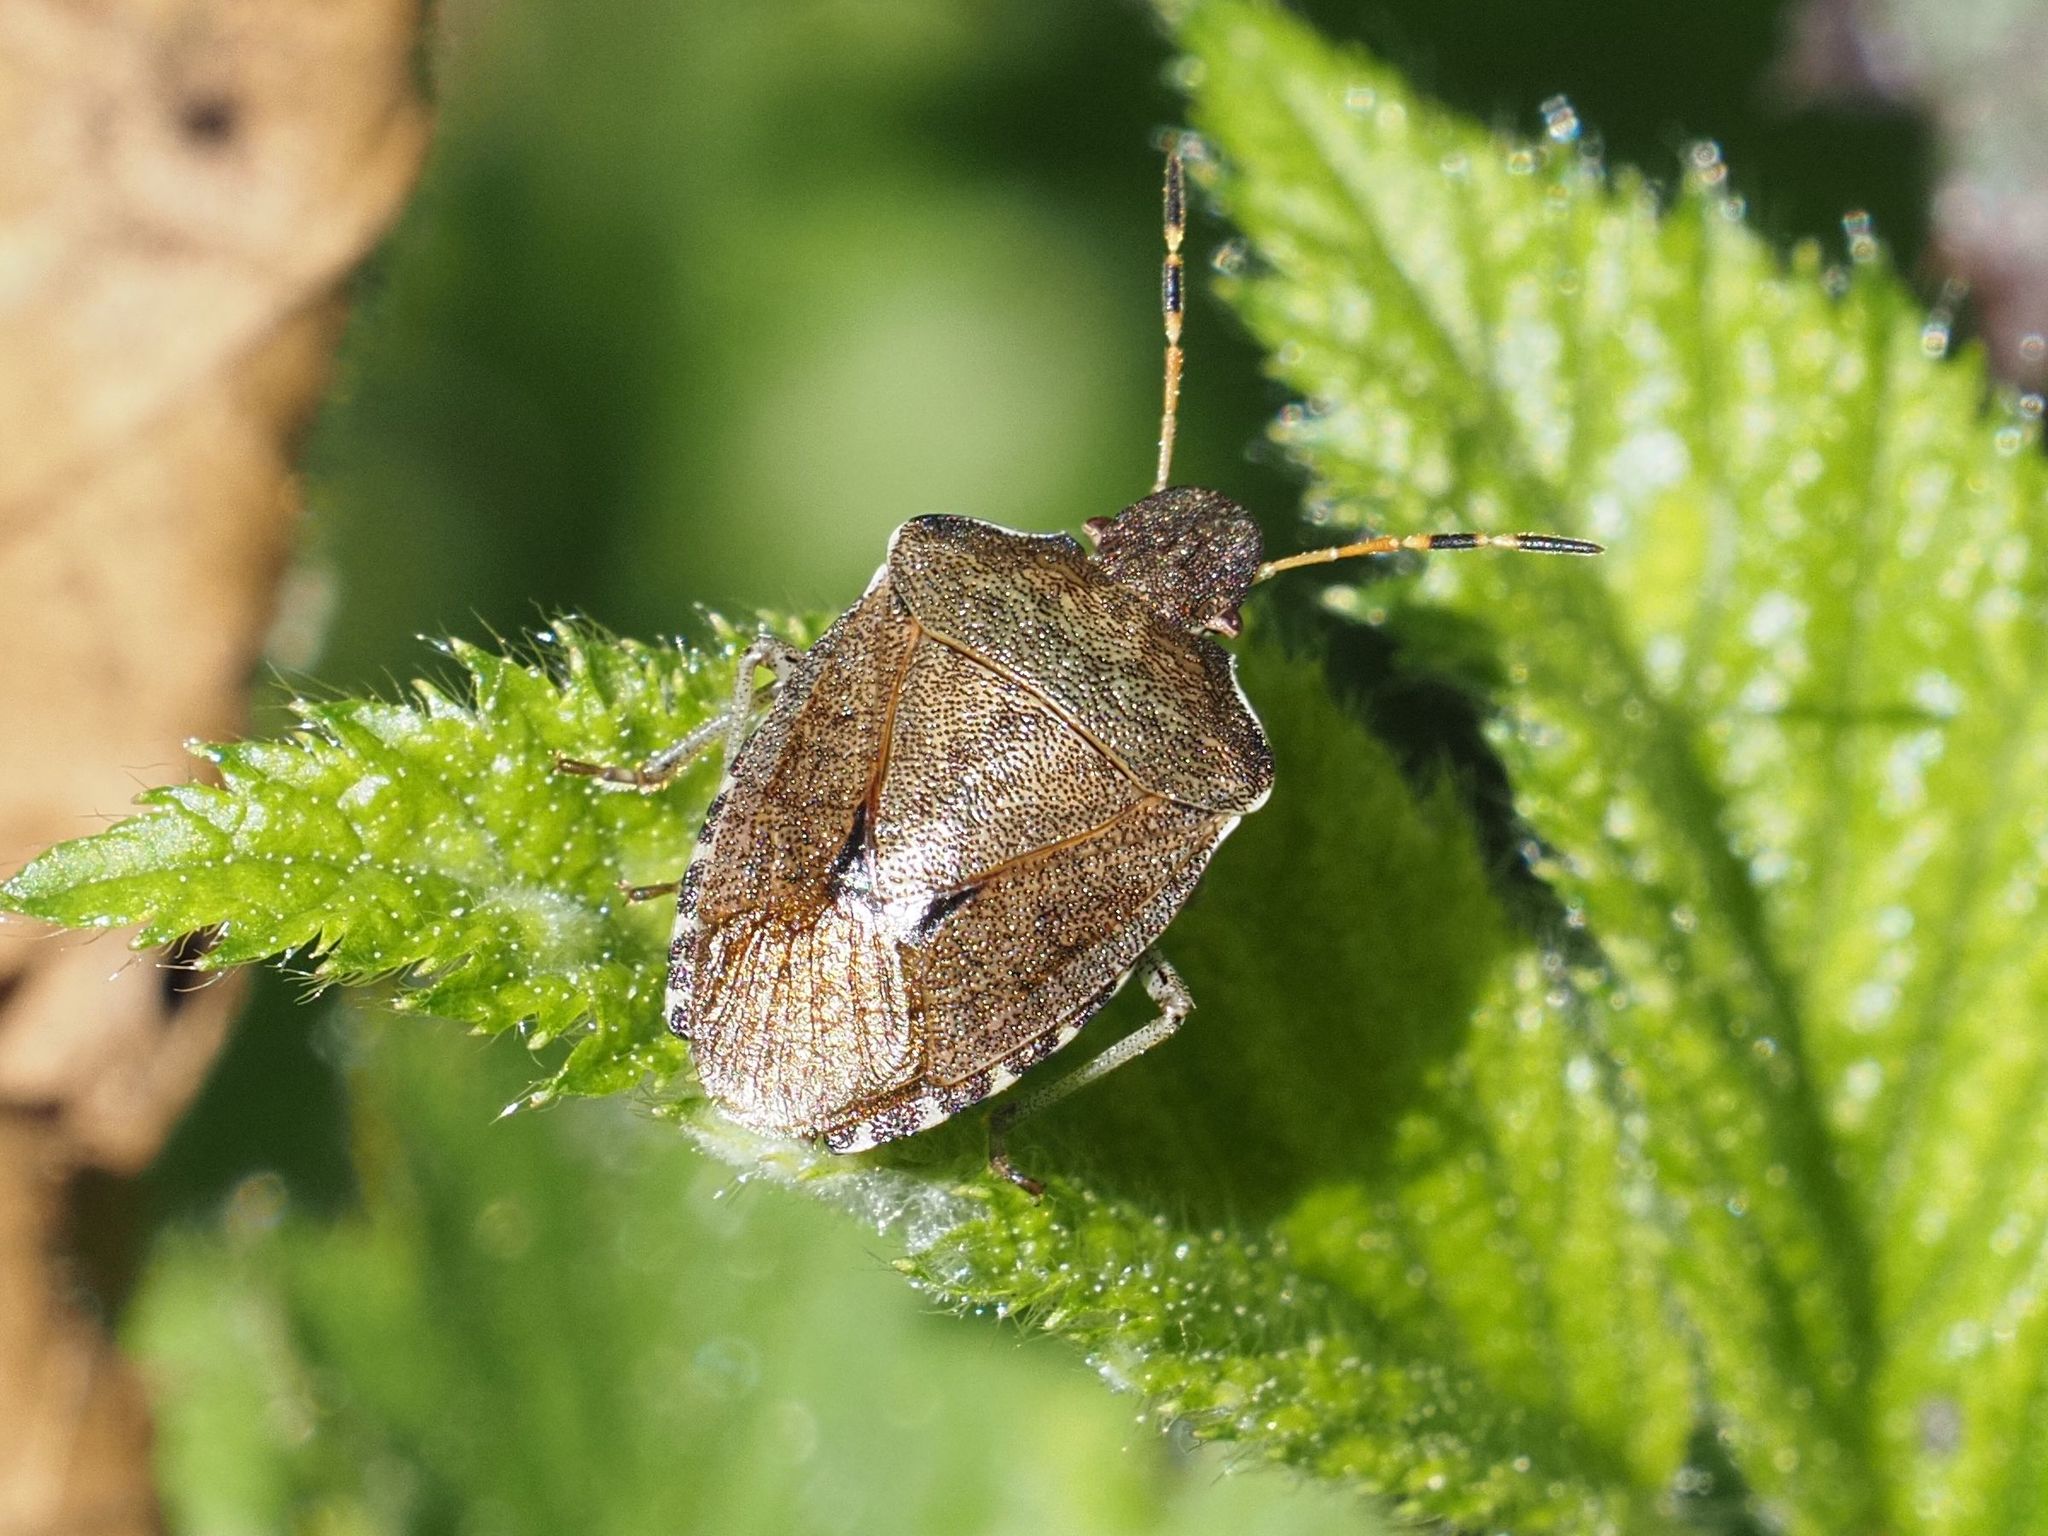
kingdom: Animalia
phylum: Arthropoda
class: Insecta
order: Hemiptera
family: Pentatomidae
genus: Holcostethus
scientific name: Holcostethus strictus
